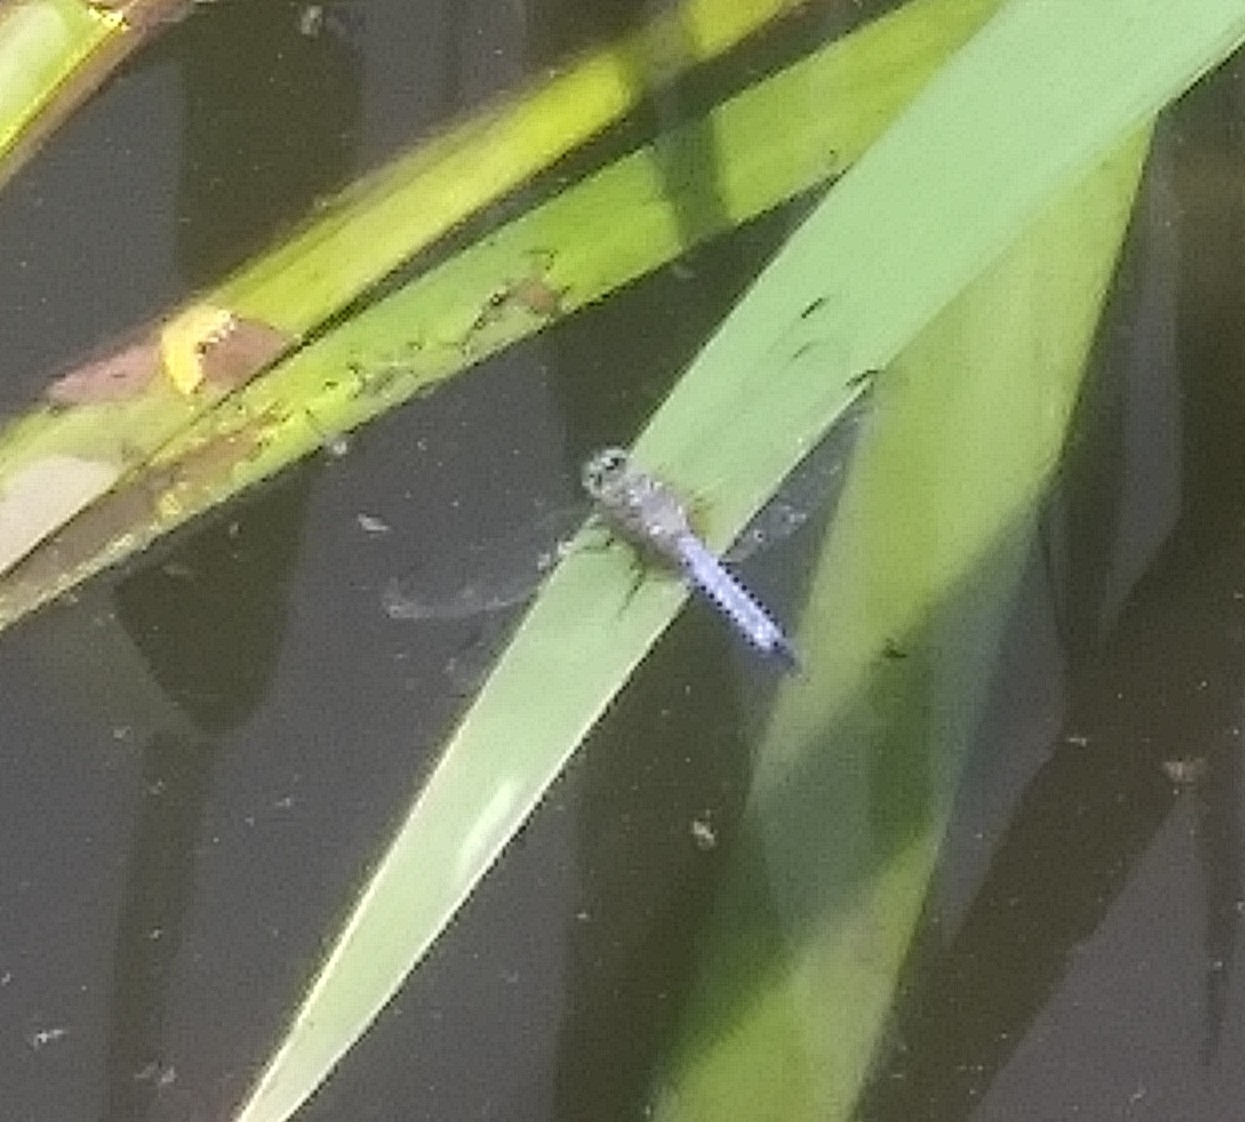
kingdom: Animalia
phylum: Arthropoda
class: Insecta
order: Odonata
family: Libellulidae
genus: Pachydiplax
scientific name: Pachydiplax longipennis
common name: Blue dasher
